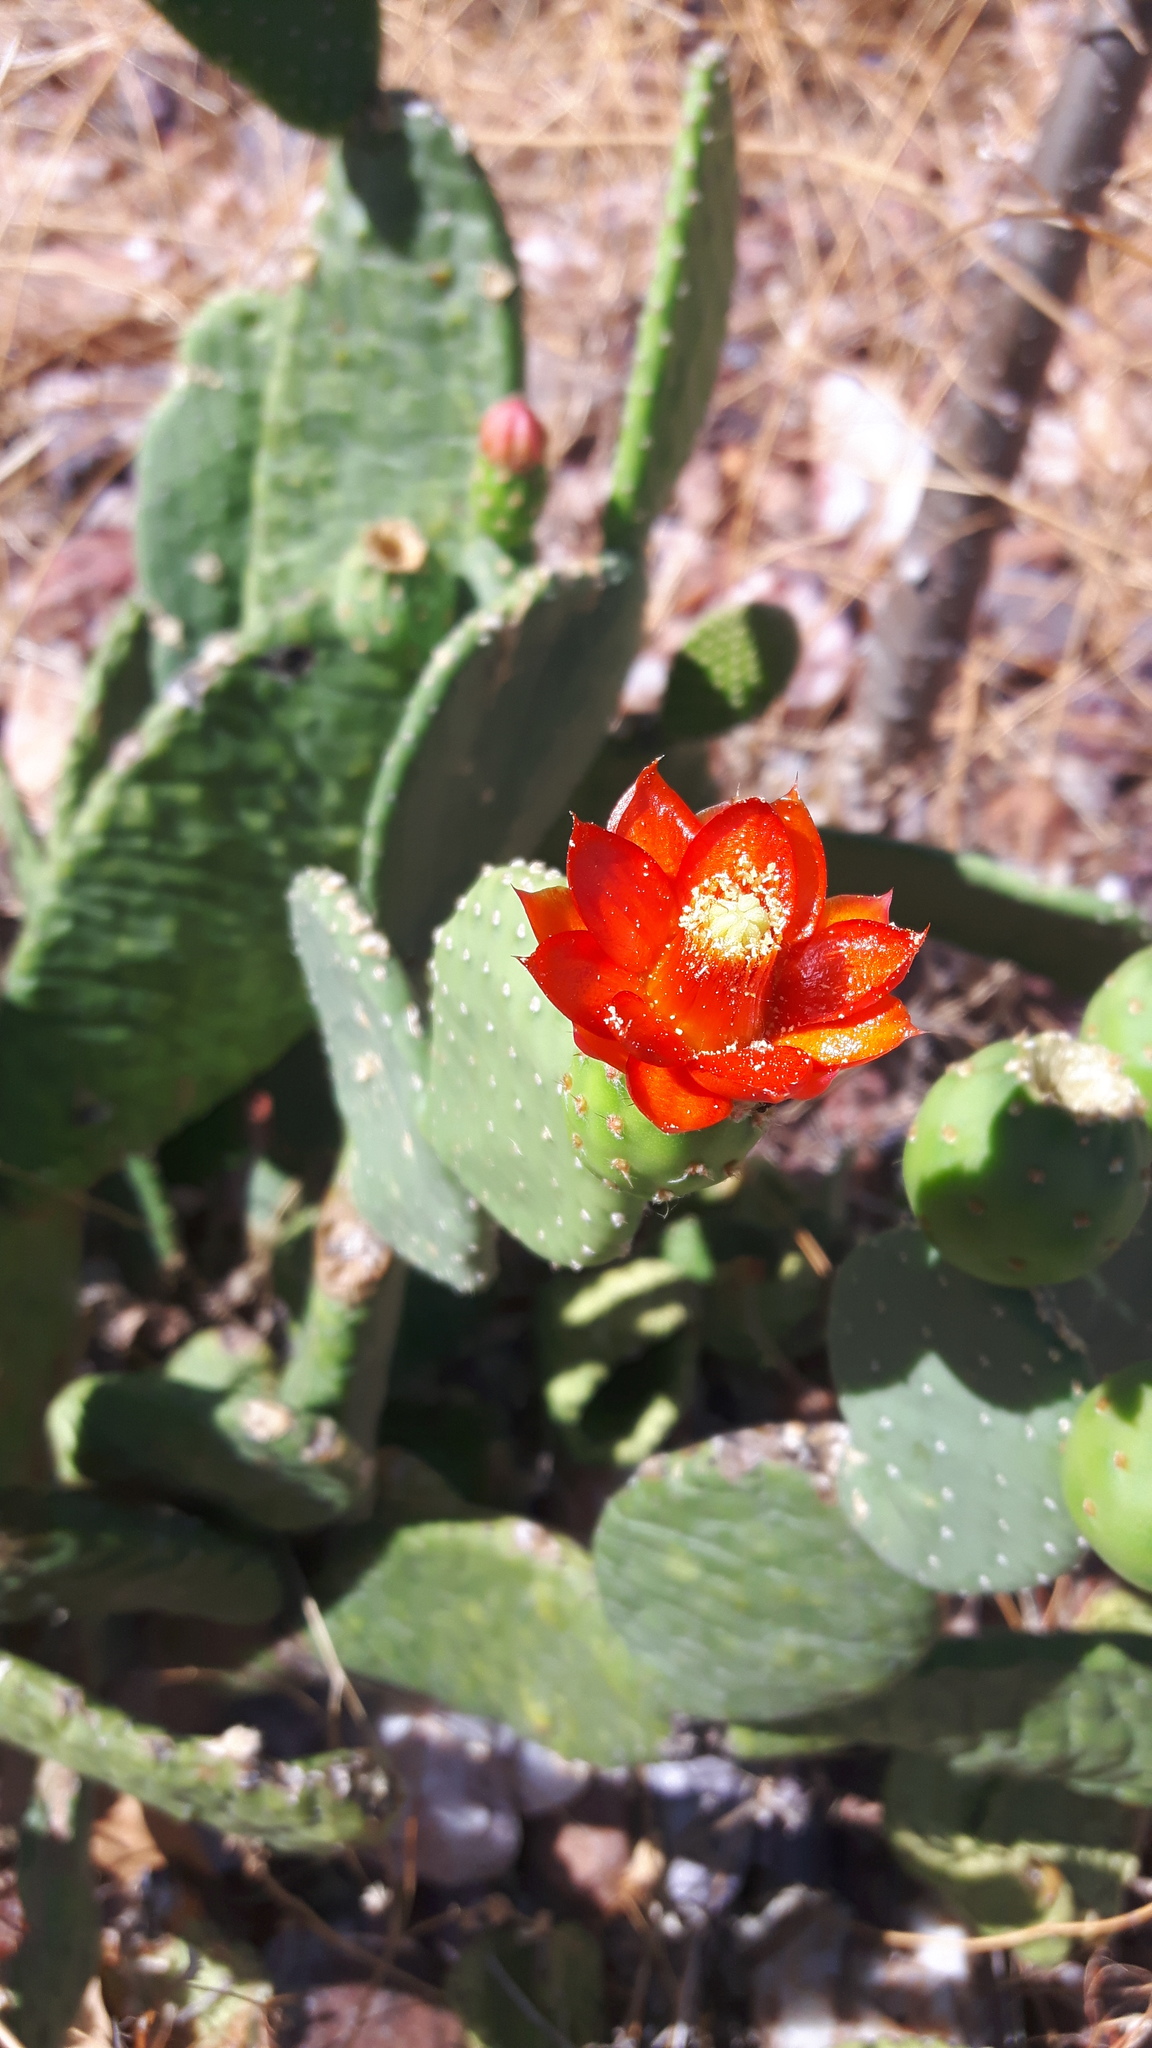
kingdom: Plantae
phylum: Tracheophyta
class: Magnoliopsida
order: Caryophyllales
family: Cactaceae
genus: Tacinga
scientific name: Tacinga inamoena
